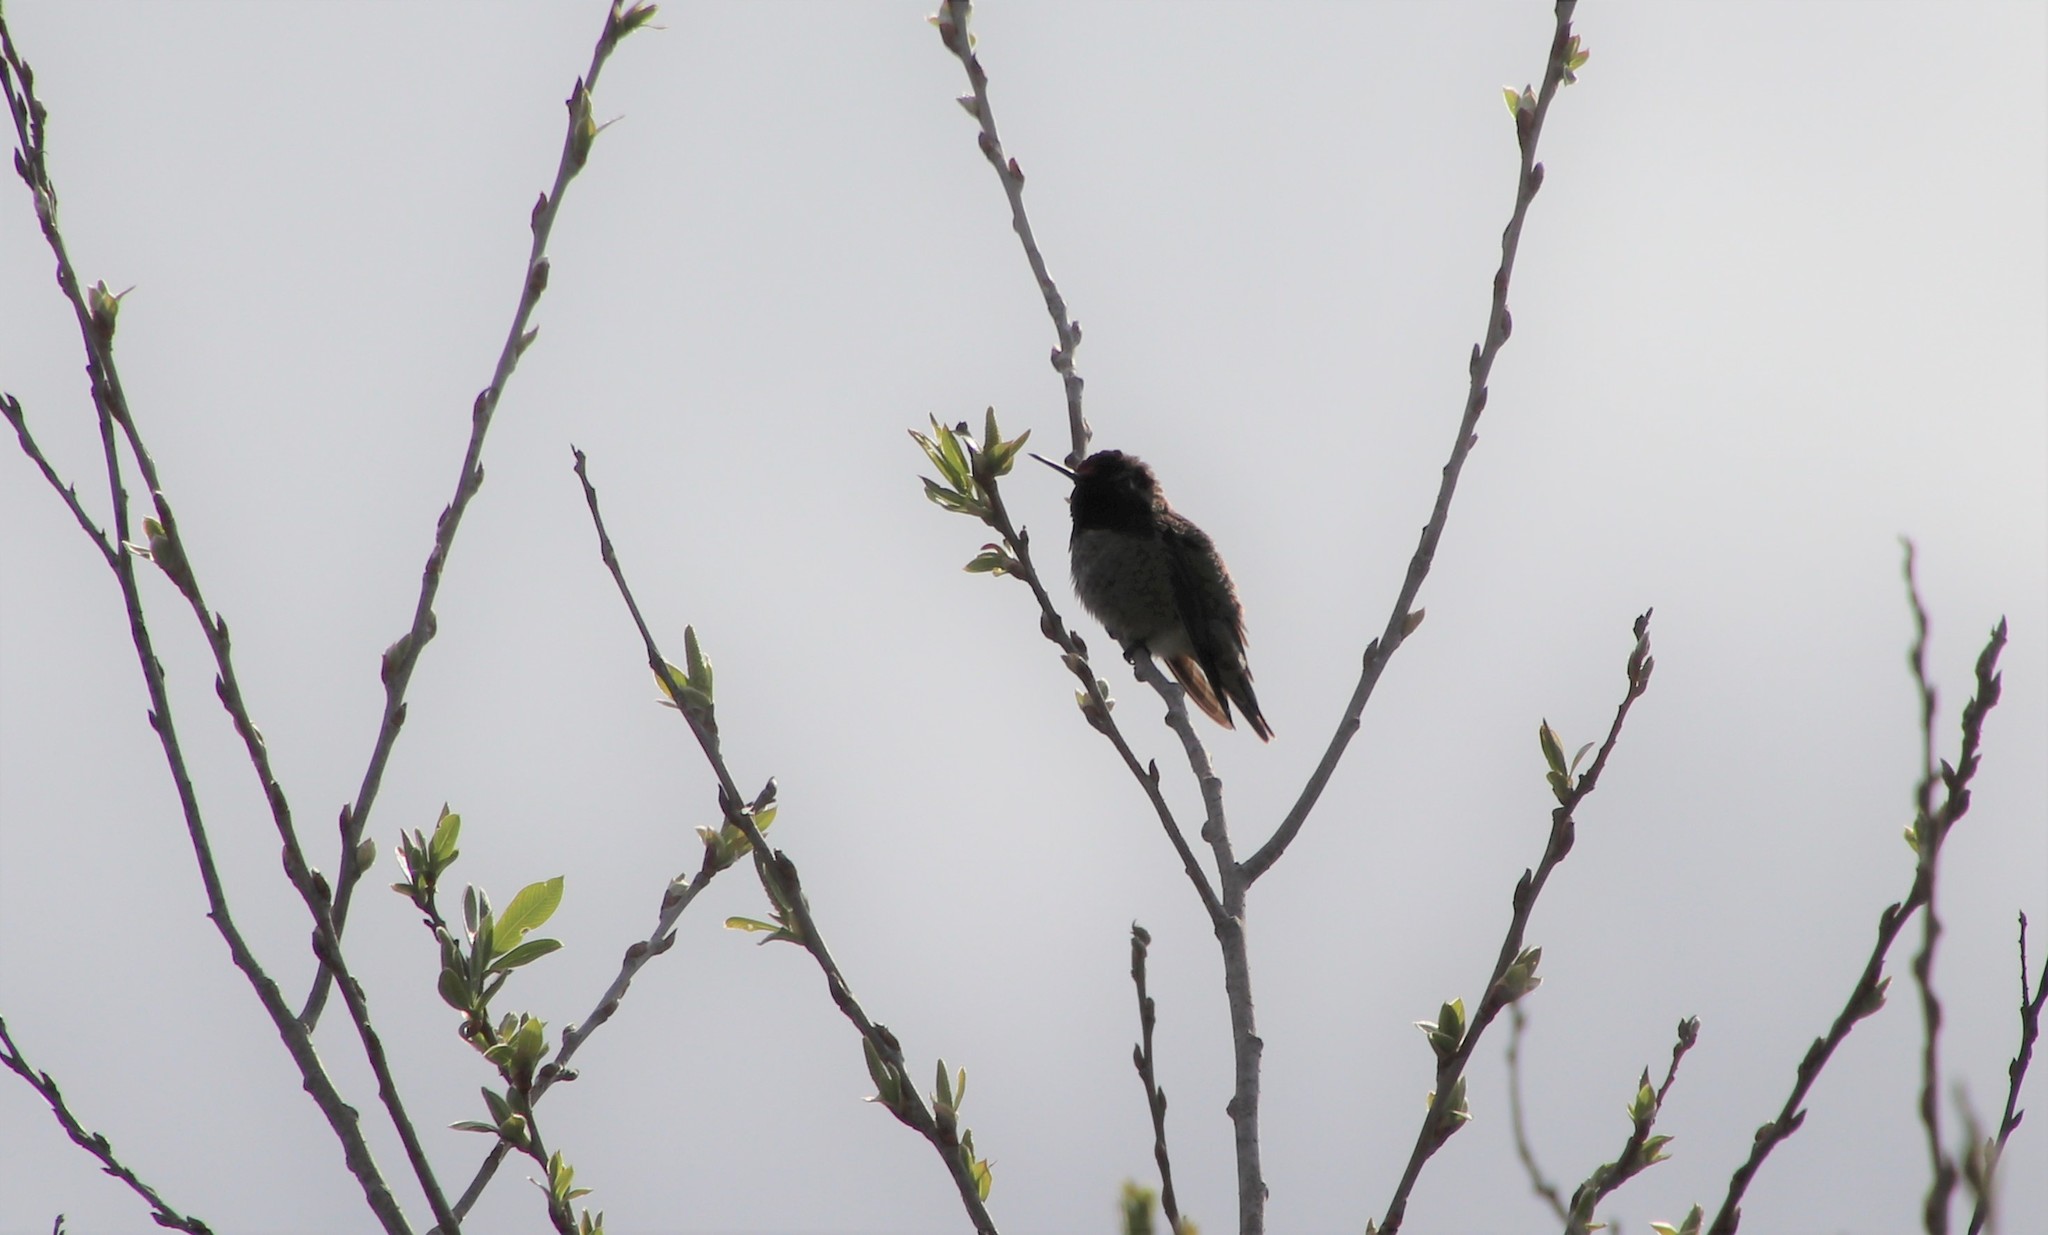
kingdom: Animalia
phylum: Chordata
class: Aves
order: Apodiformes
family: Trochilidae
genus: Calypte
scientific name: Calypte anna
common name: Anna's hummingbird
